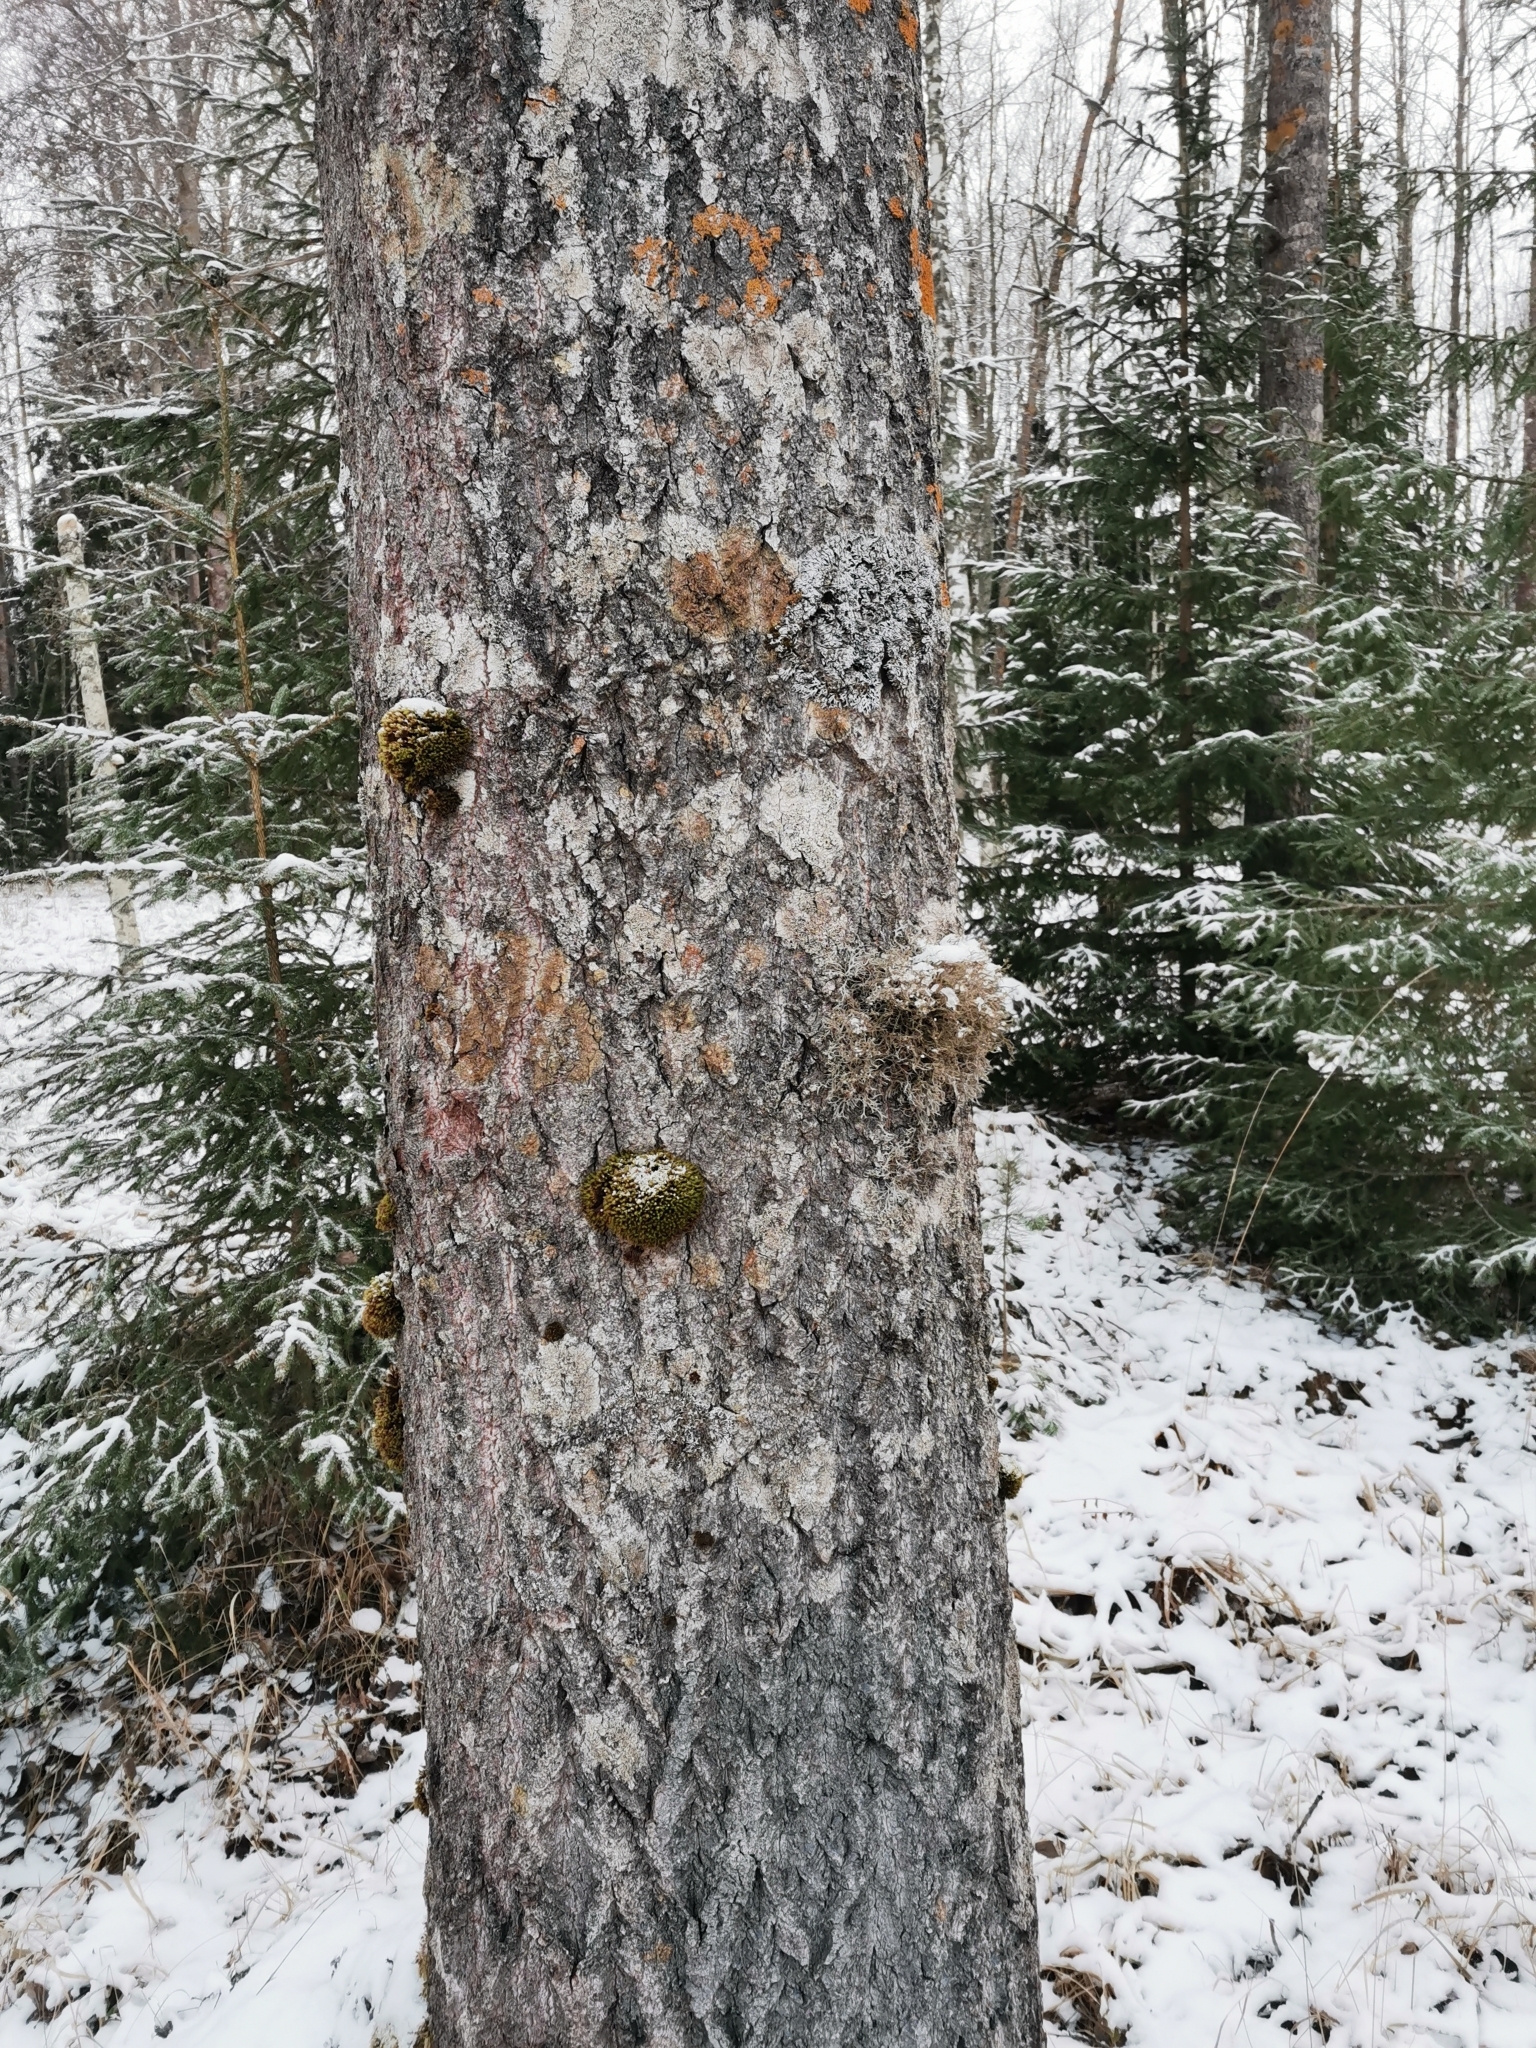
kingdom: Fungi
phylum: Ascomycota
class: Lecanoromycetes
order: Caliciales
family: Physciaceae
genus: Anaptychia
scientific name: Anaptychia ciliaris
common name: Great ciliated lichen
